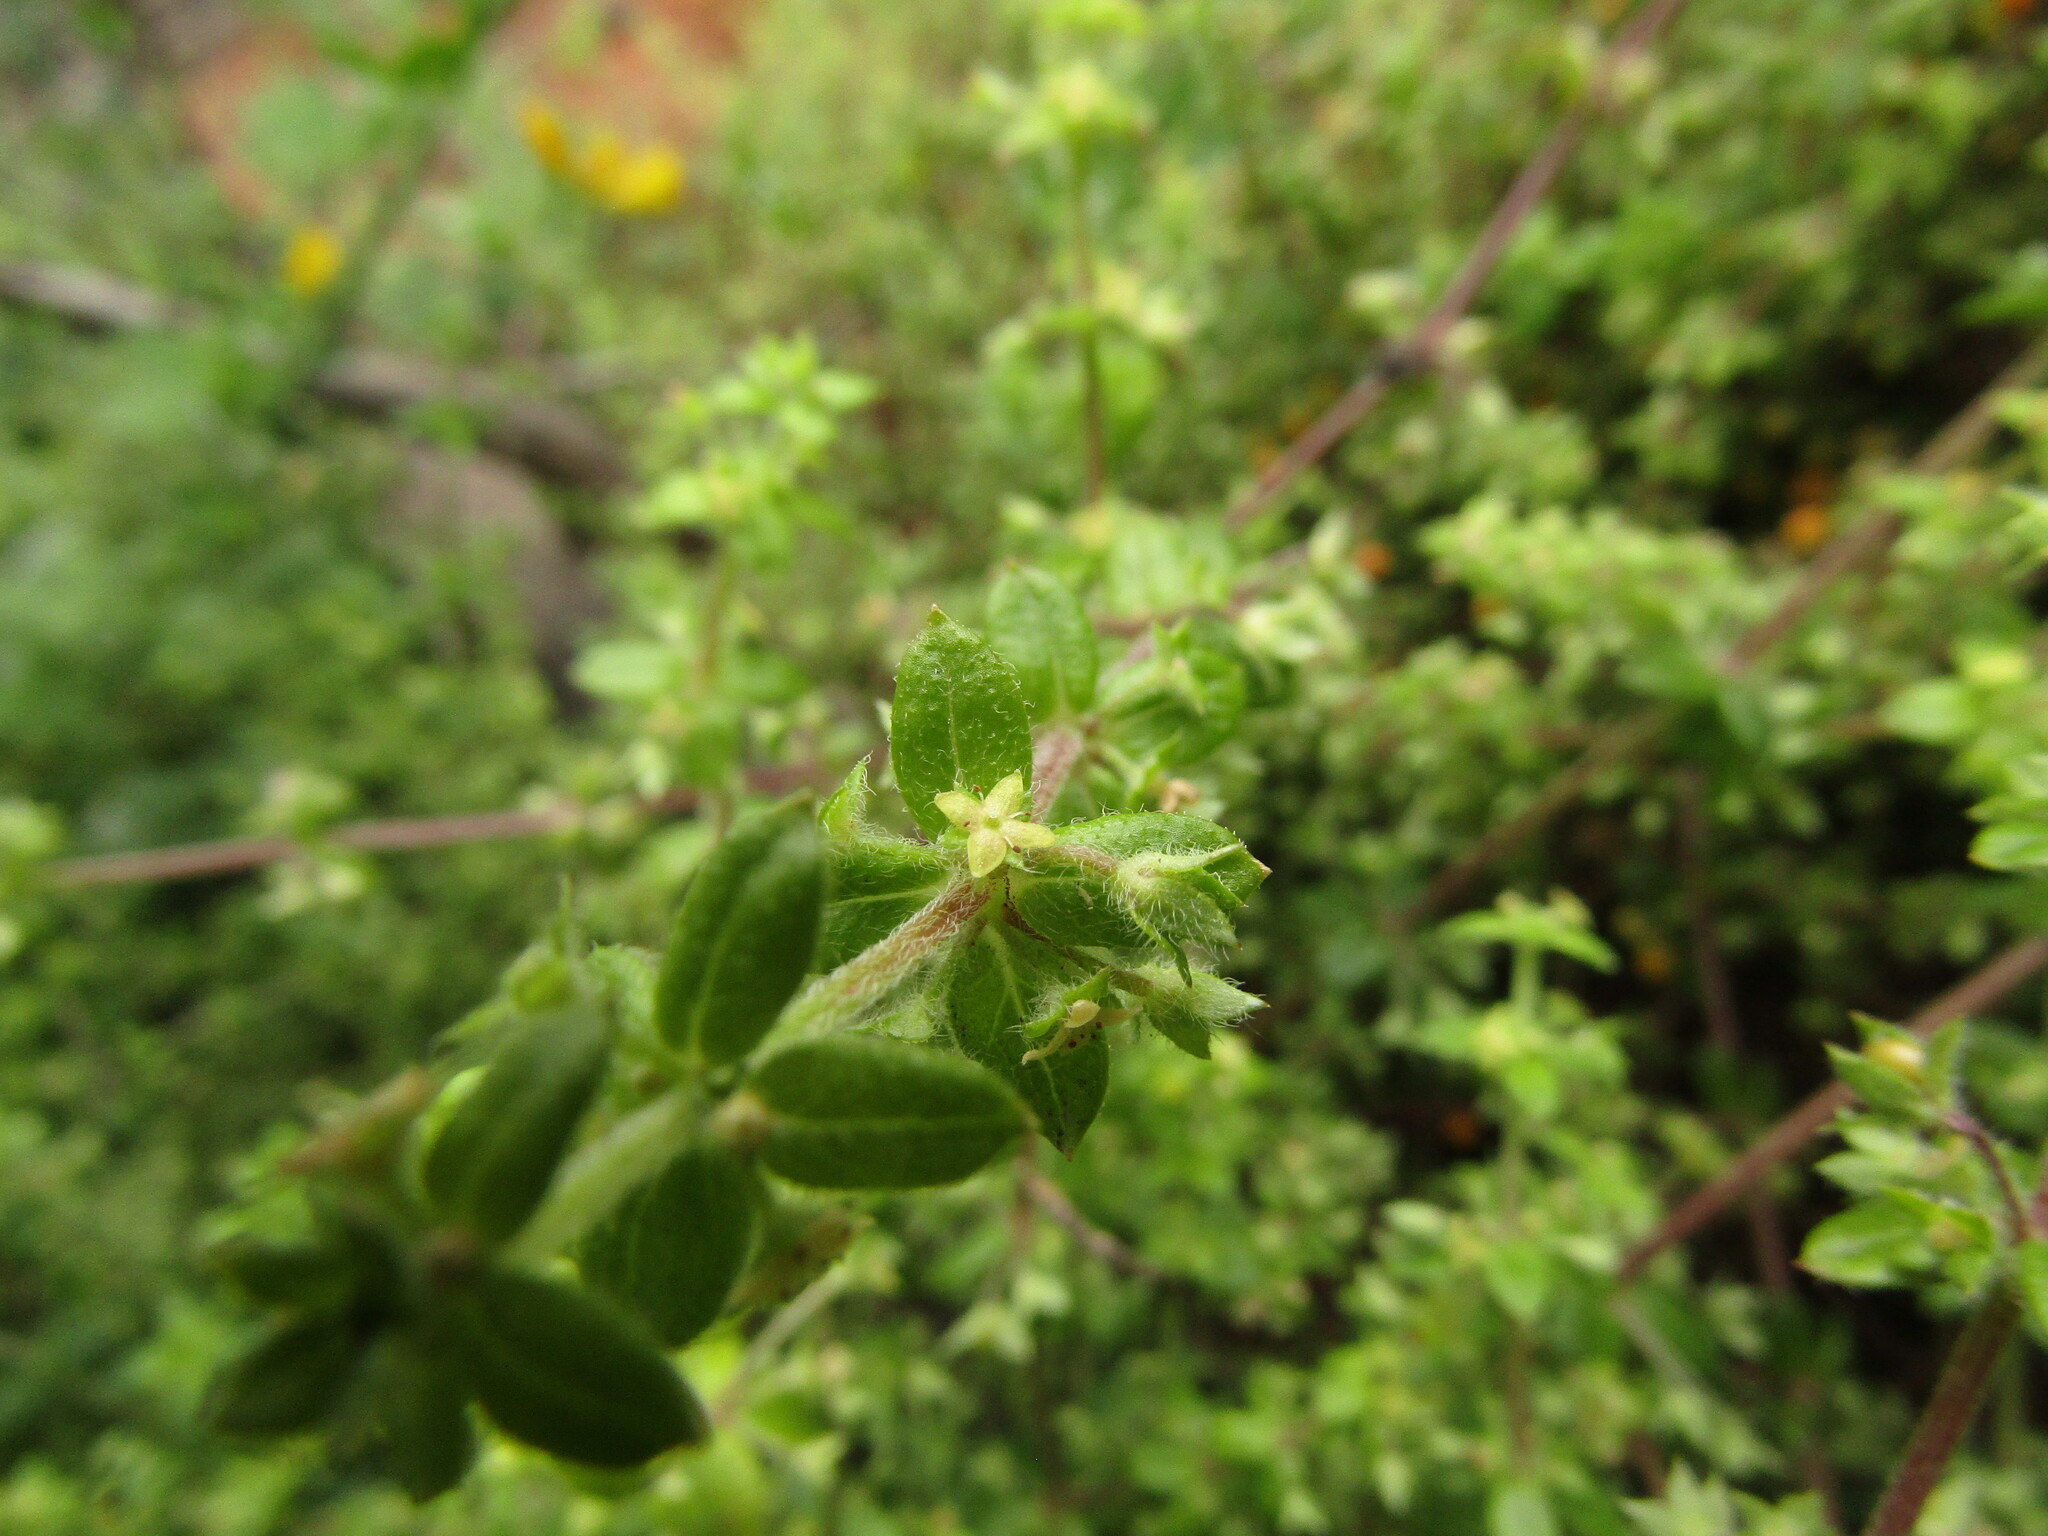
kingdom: Plantae
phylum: Tracheophyta
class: Magnoliopsida
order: Gentianales
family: Rubiaceae
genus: Galium
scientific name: Galium hypocarpium
